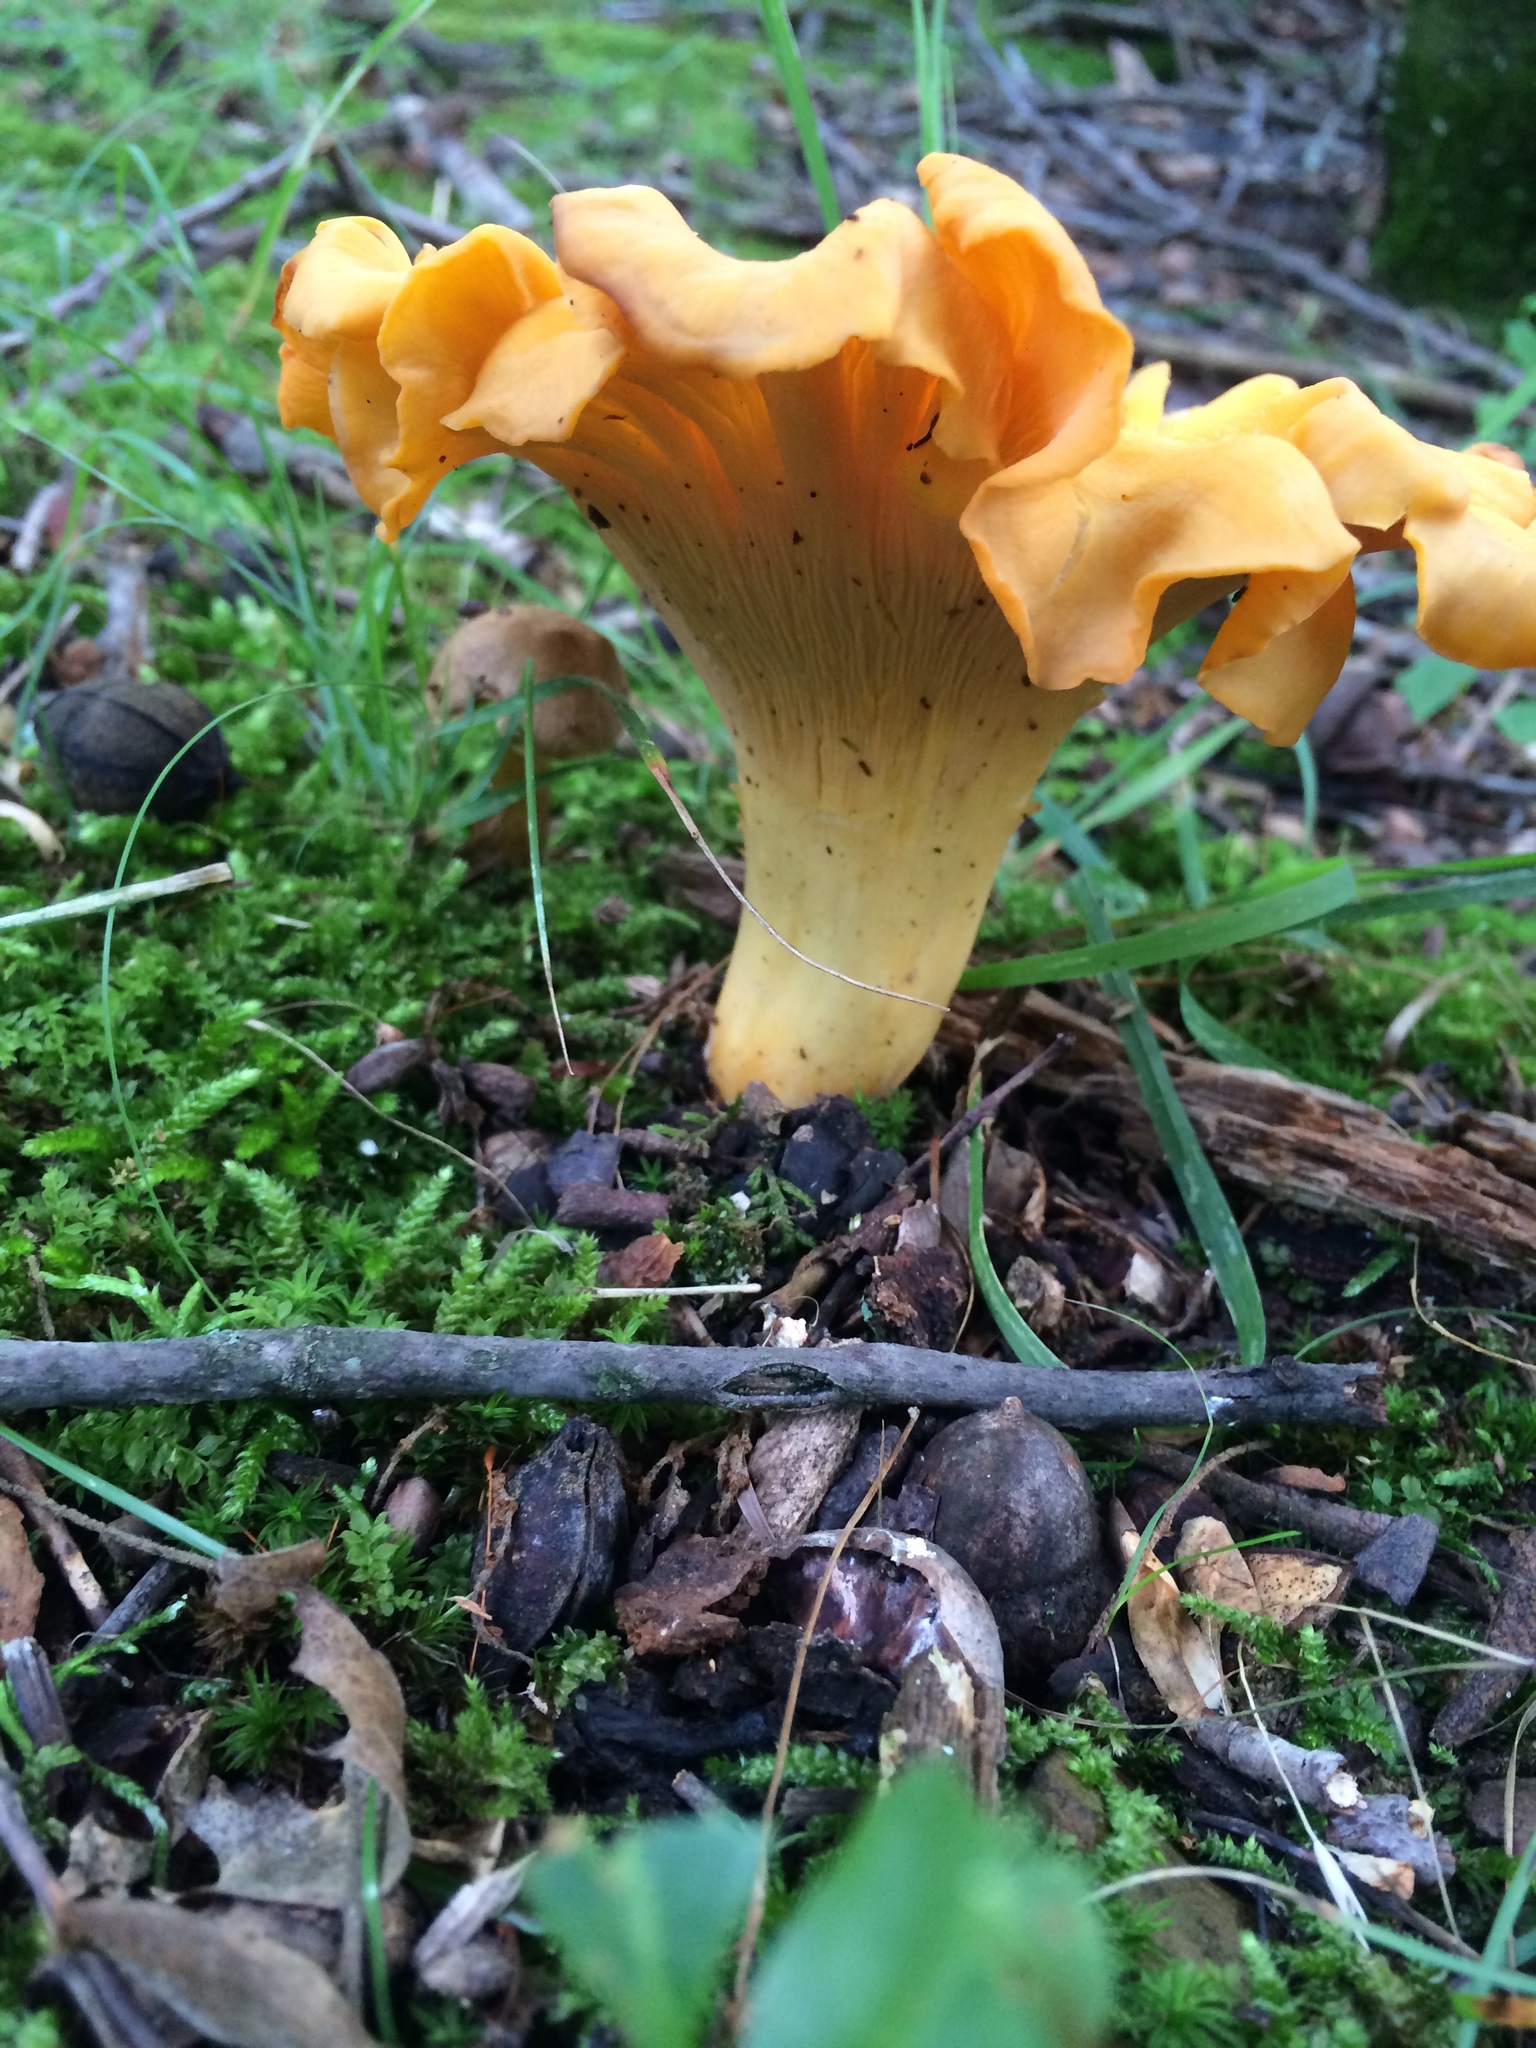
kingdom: Fungi
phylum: Basidiomycota
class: Agaricomycetes
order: Cantharellales
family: Hydnaceae
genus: Cantharellus
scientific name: Cantharellus flavolateritius
